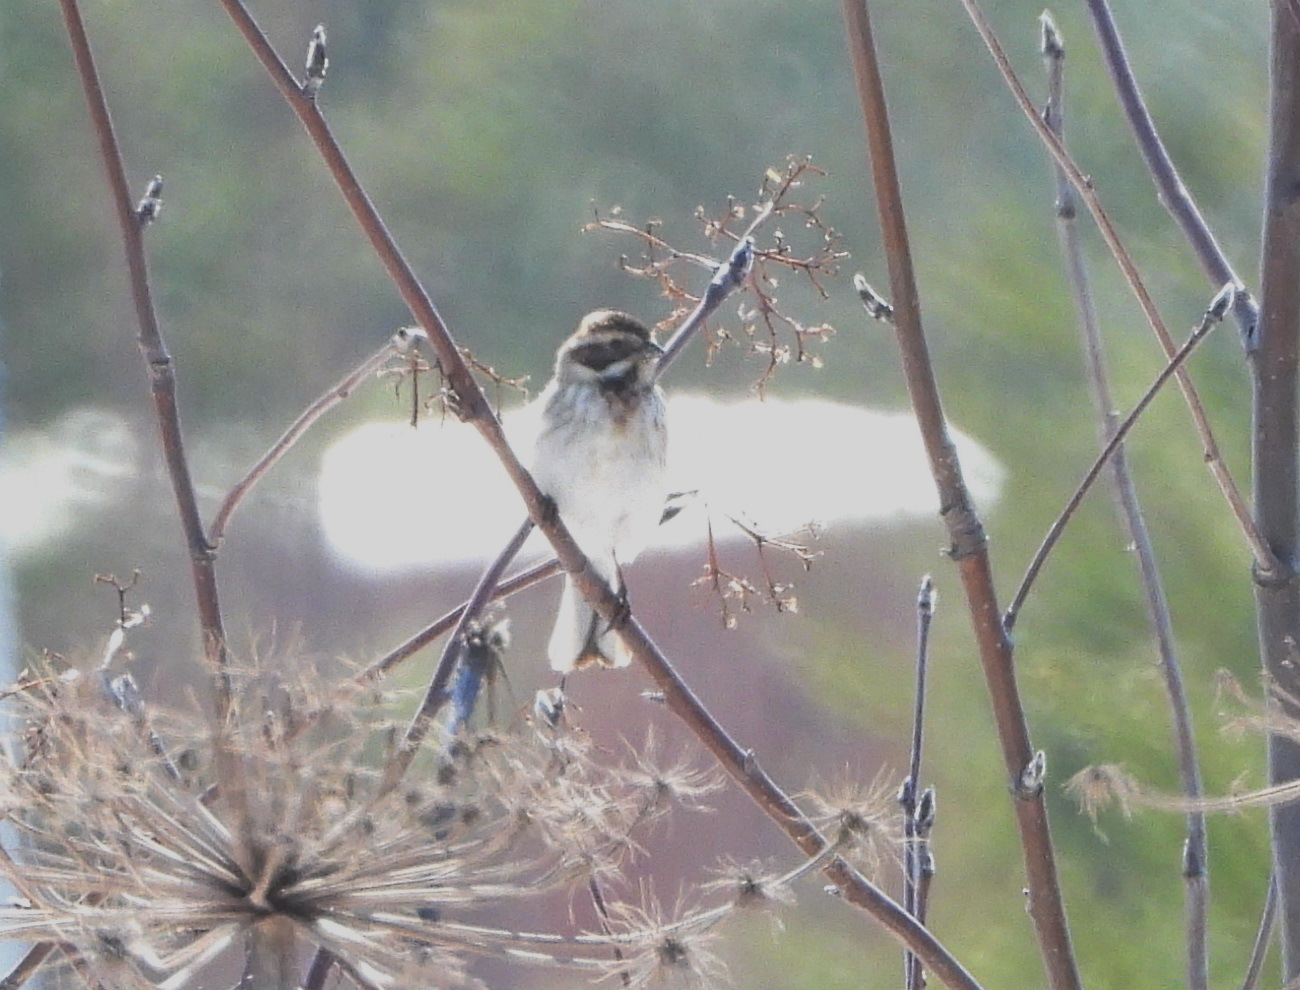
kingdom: Animalia
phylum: Chordata
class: Aves
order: Passeriformes
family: Emberizidae
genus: Emberiza
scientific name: Emberiza schoeniclus
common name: Reed bunting
